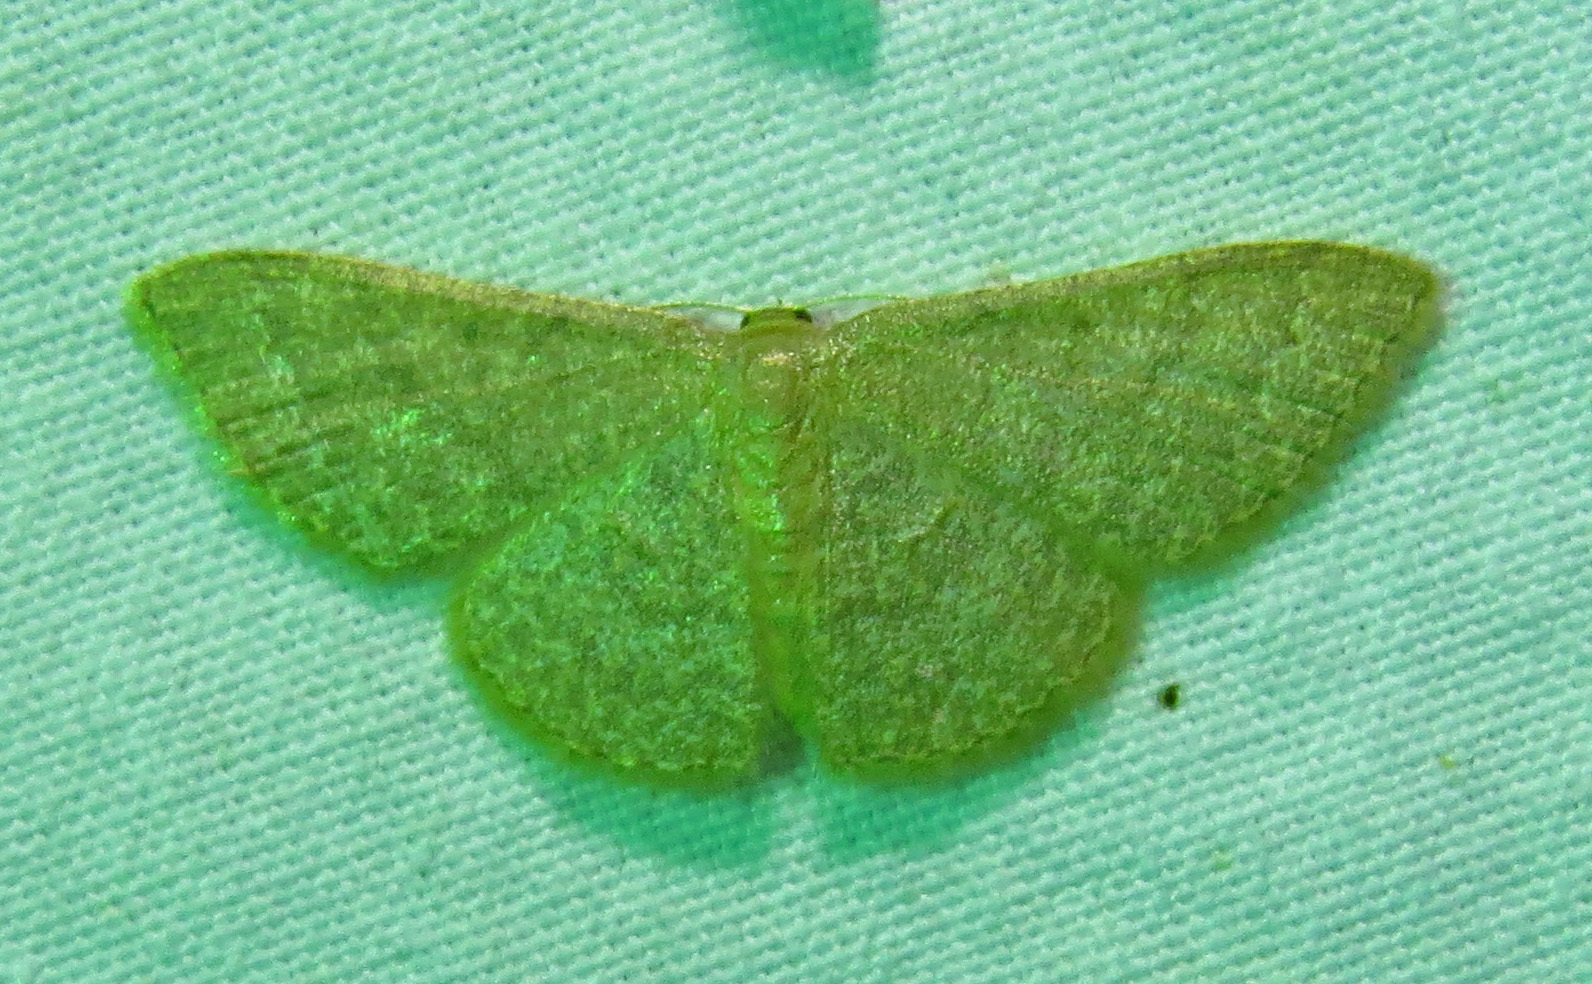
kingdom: Animalia
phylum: Arthropoda
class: Insecta
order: Lepidoptera
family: Geometridae
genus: Pleuroprucha
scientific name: Pleuroprucha insulsaria
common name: Common tan wave
